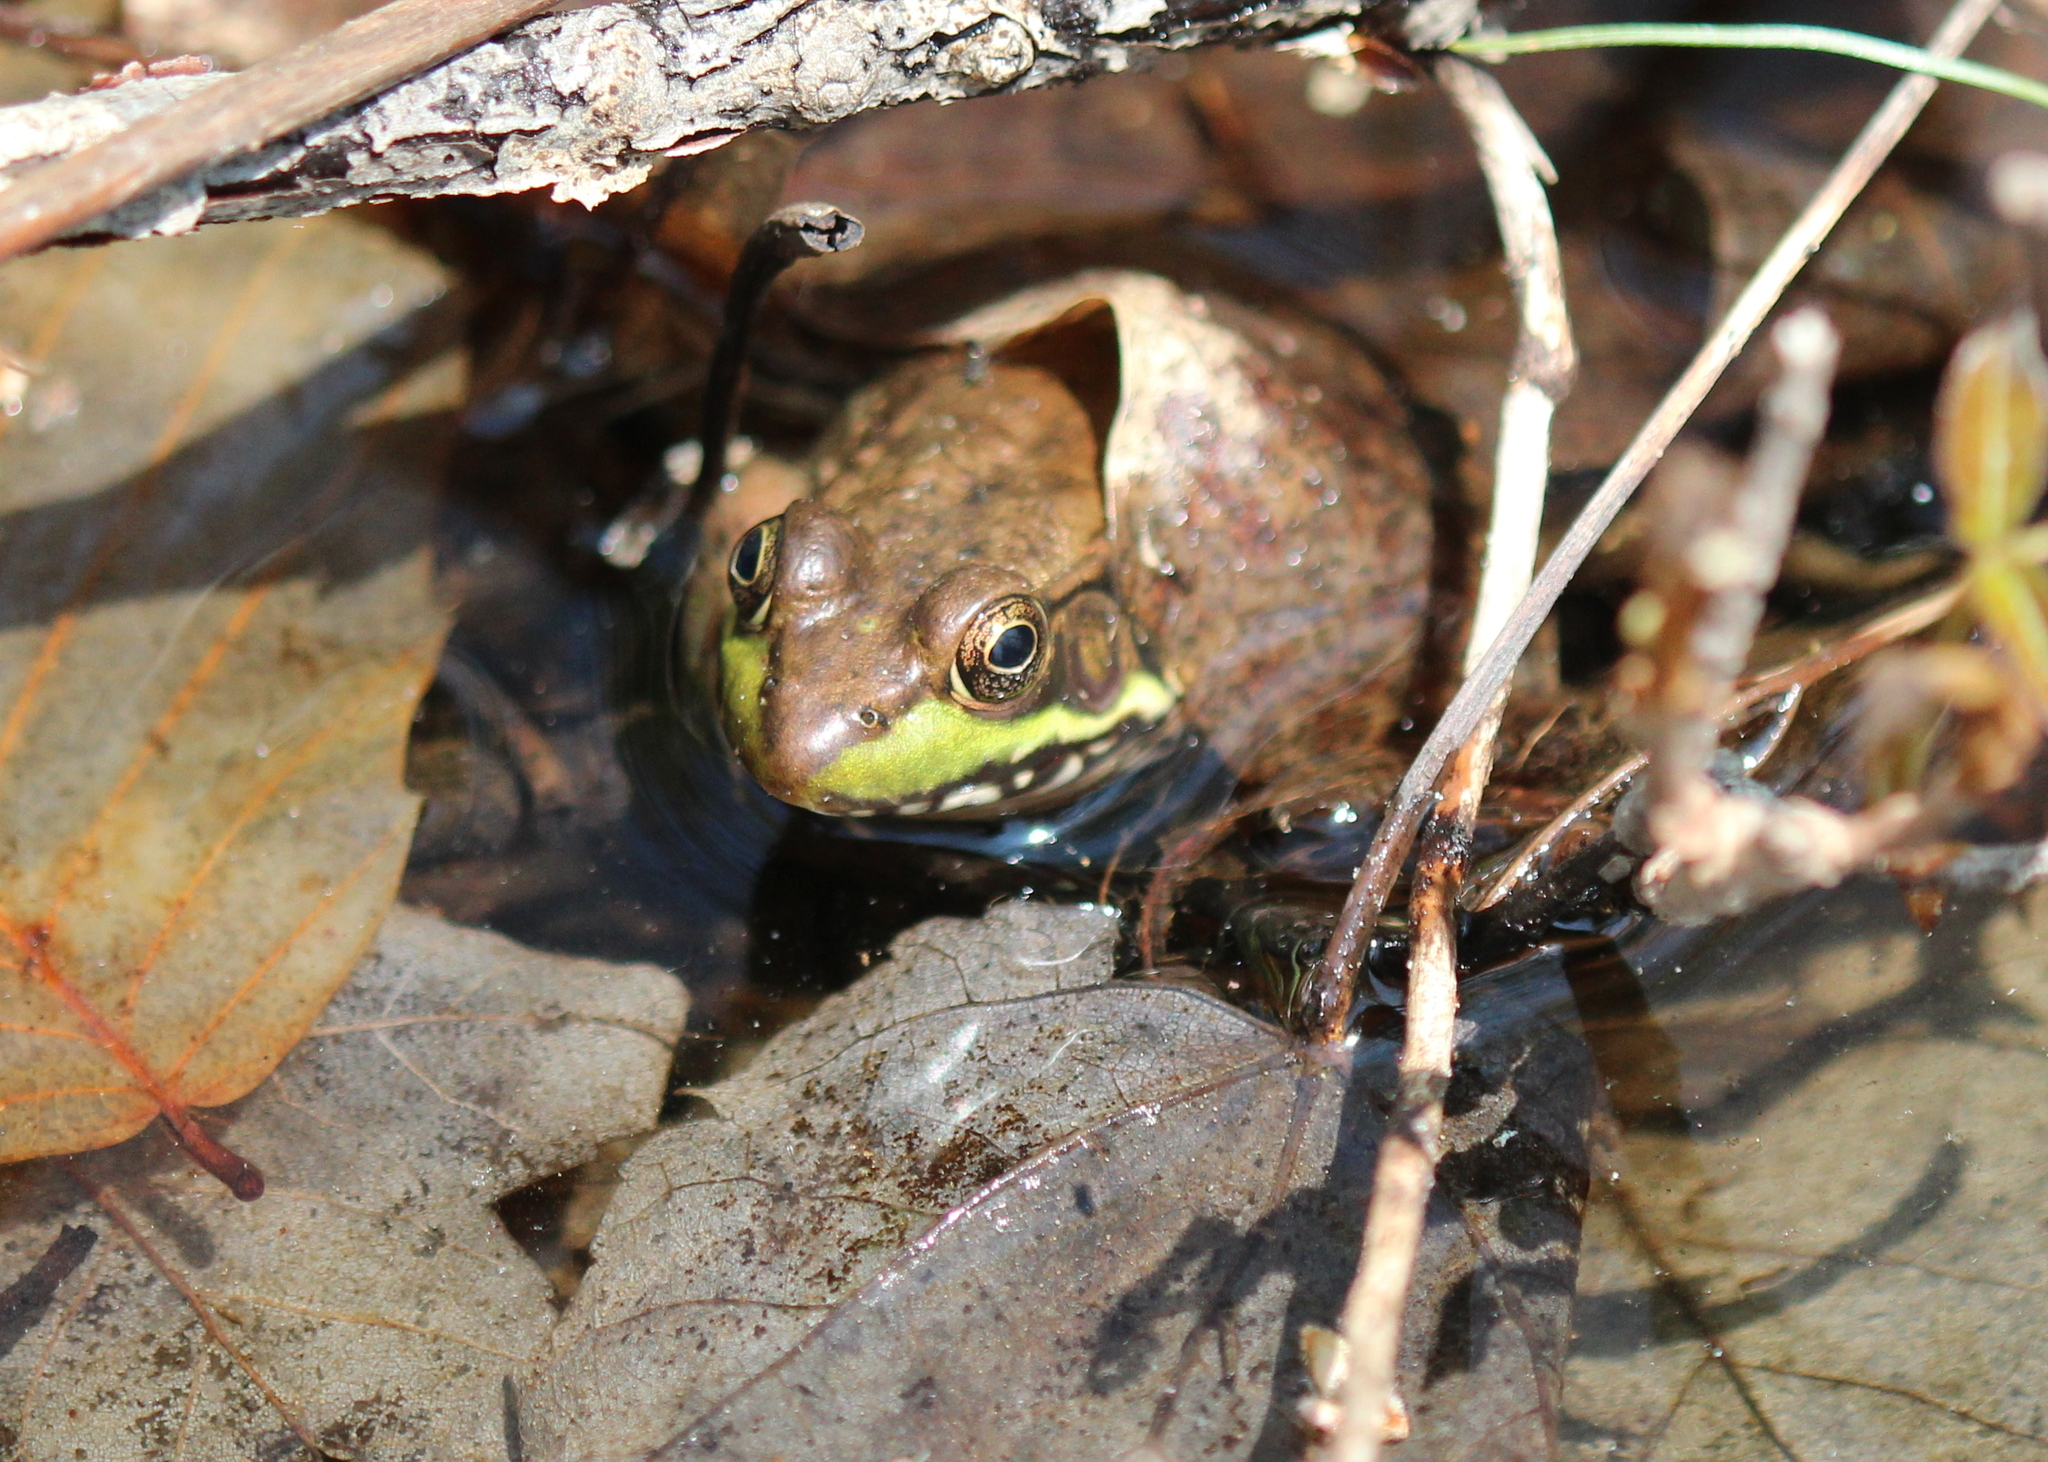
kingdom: Animalia
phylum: Chordata
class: Amphibia
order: Anura
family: Ranidae
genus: Lithobates
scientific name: Lithobates clamitans
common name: Green frog
